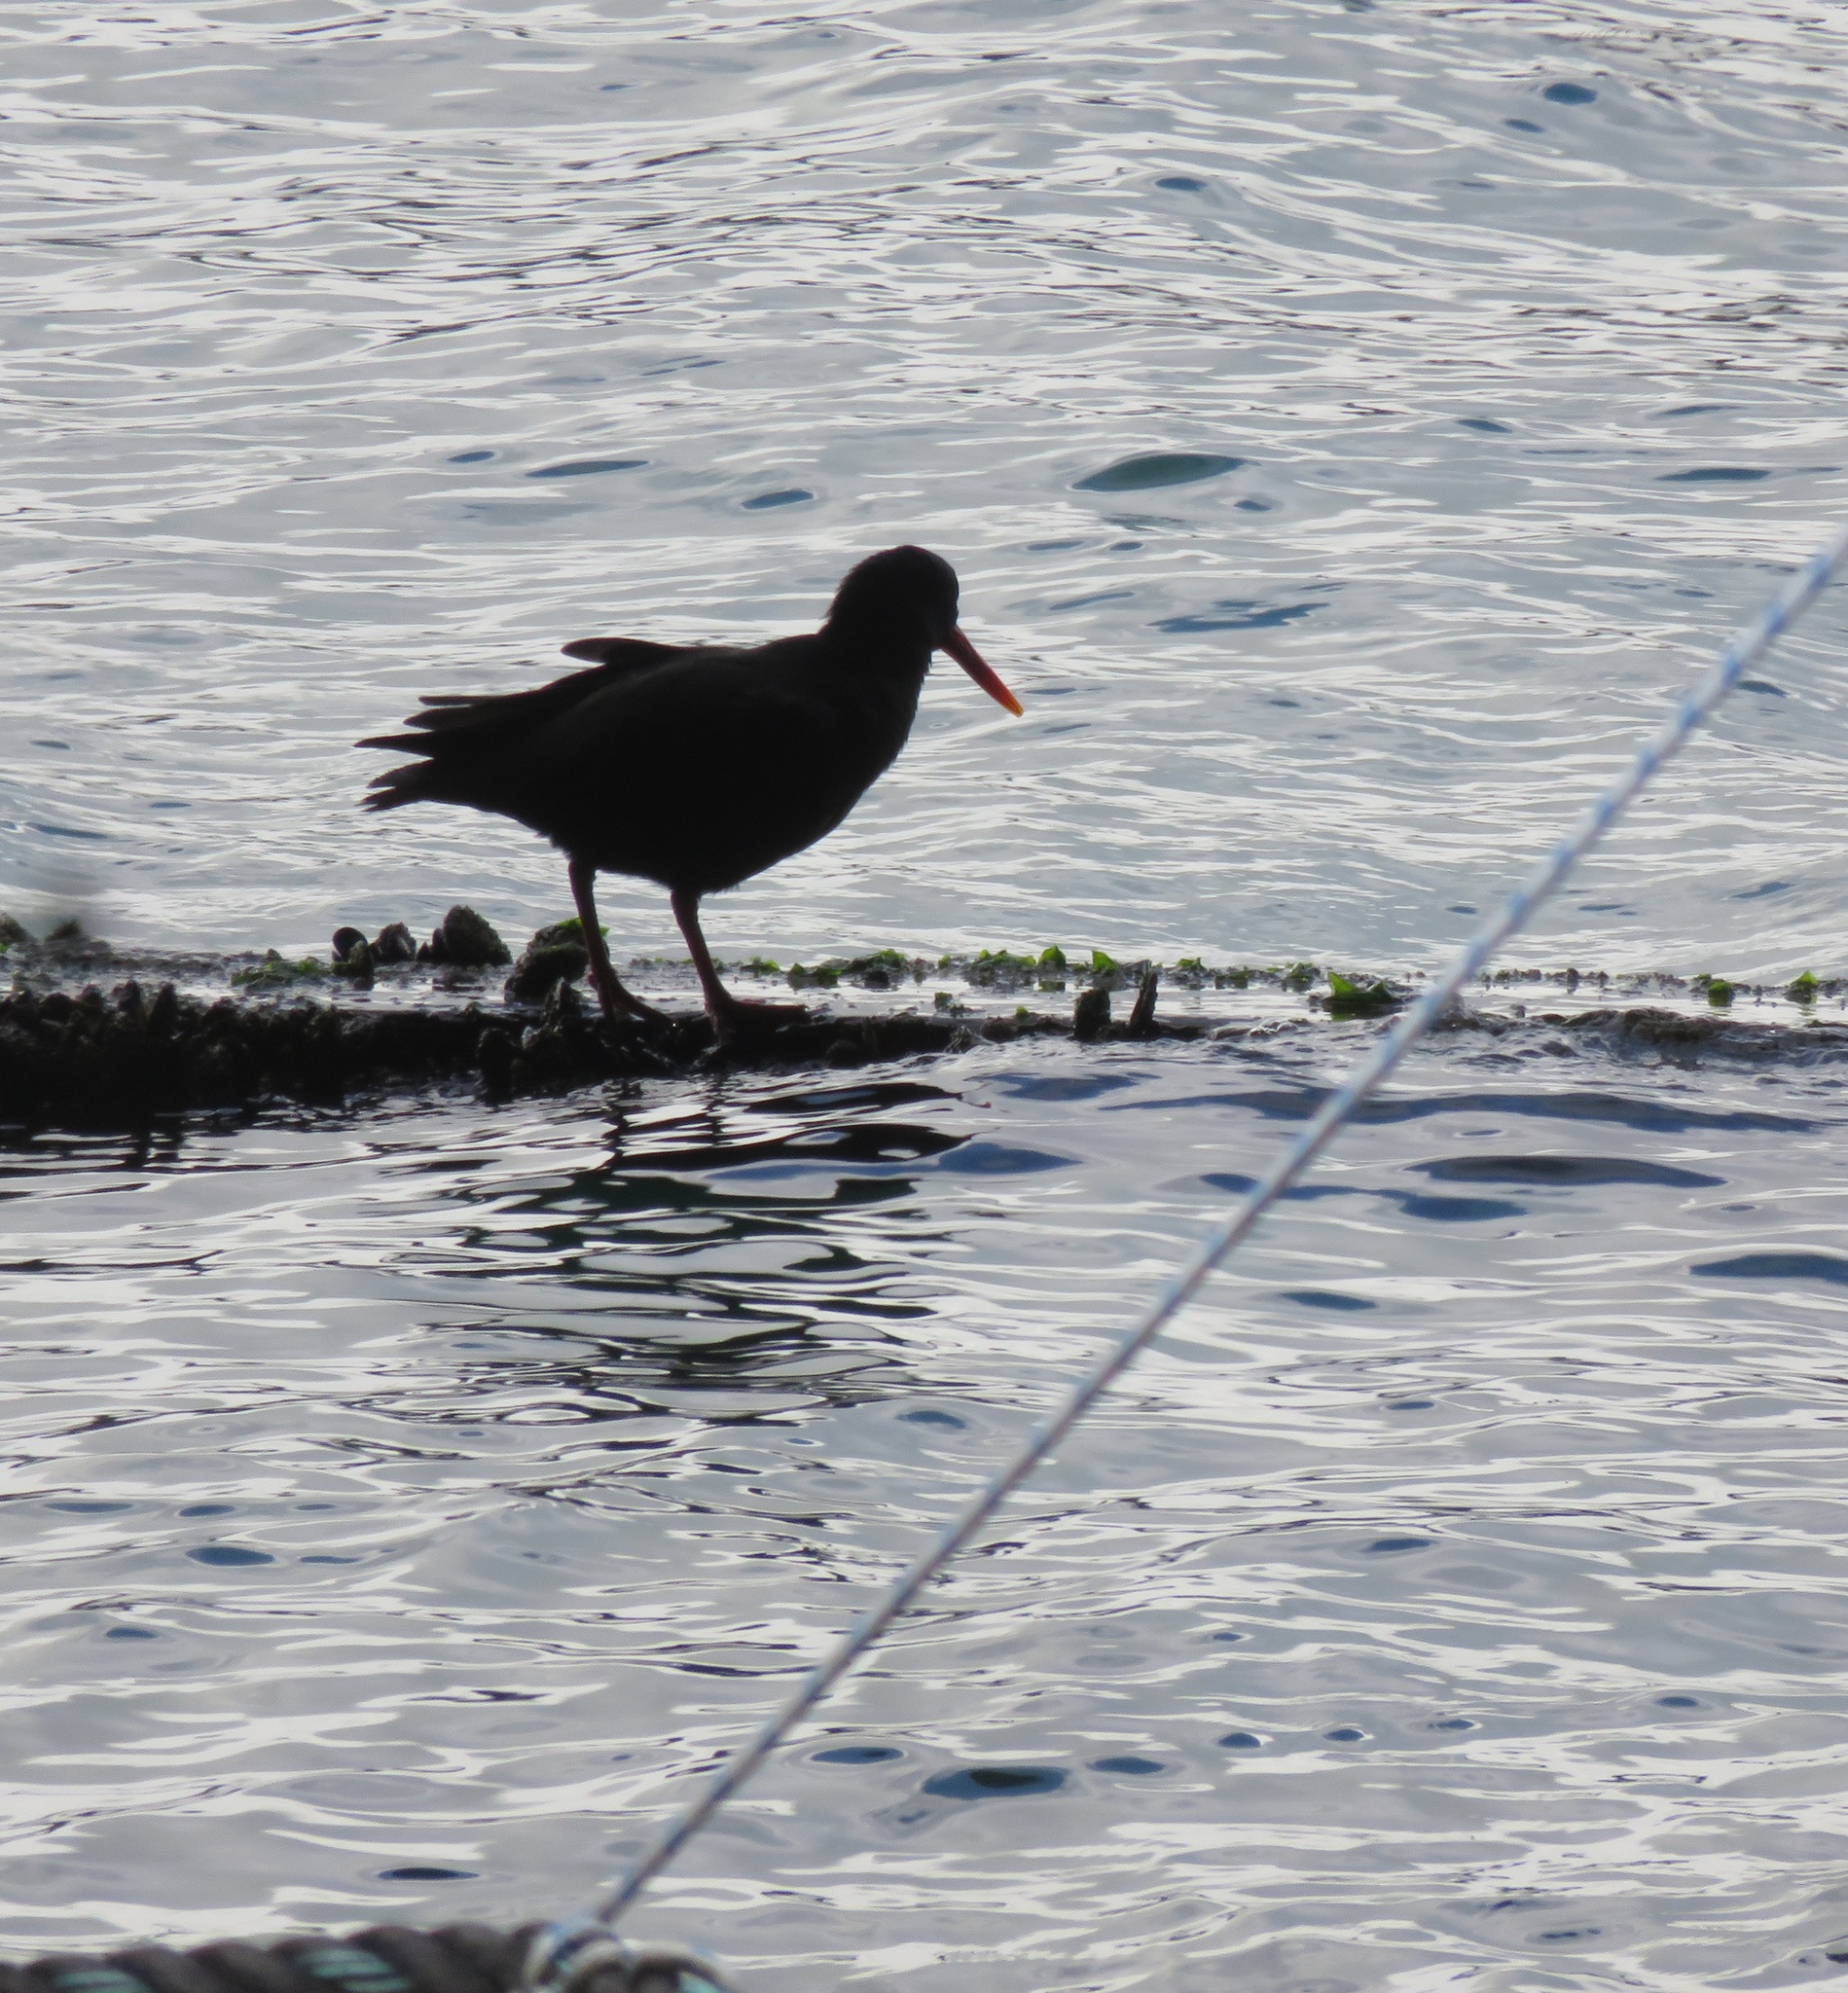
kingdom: Animalia
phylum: Chordata
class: Aves
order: Charadriiformes
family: Haematopodidae
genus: Haematopus
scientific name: Haematopus unicolor
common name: Variable oystercatcher
